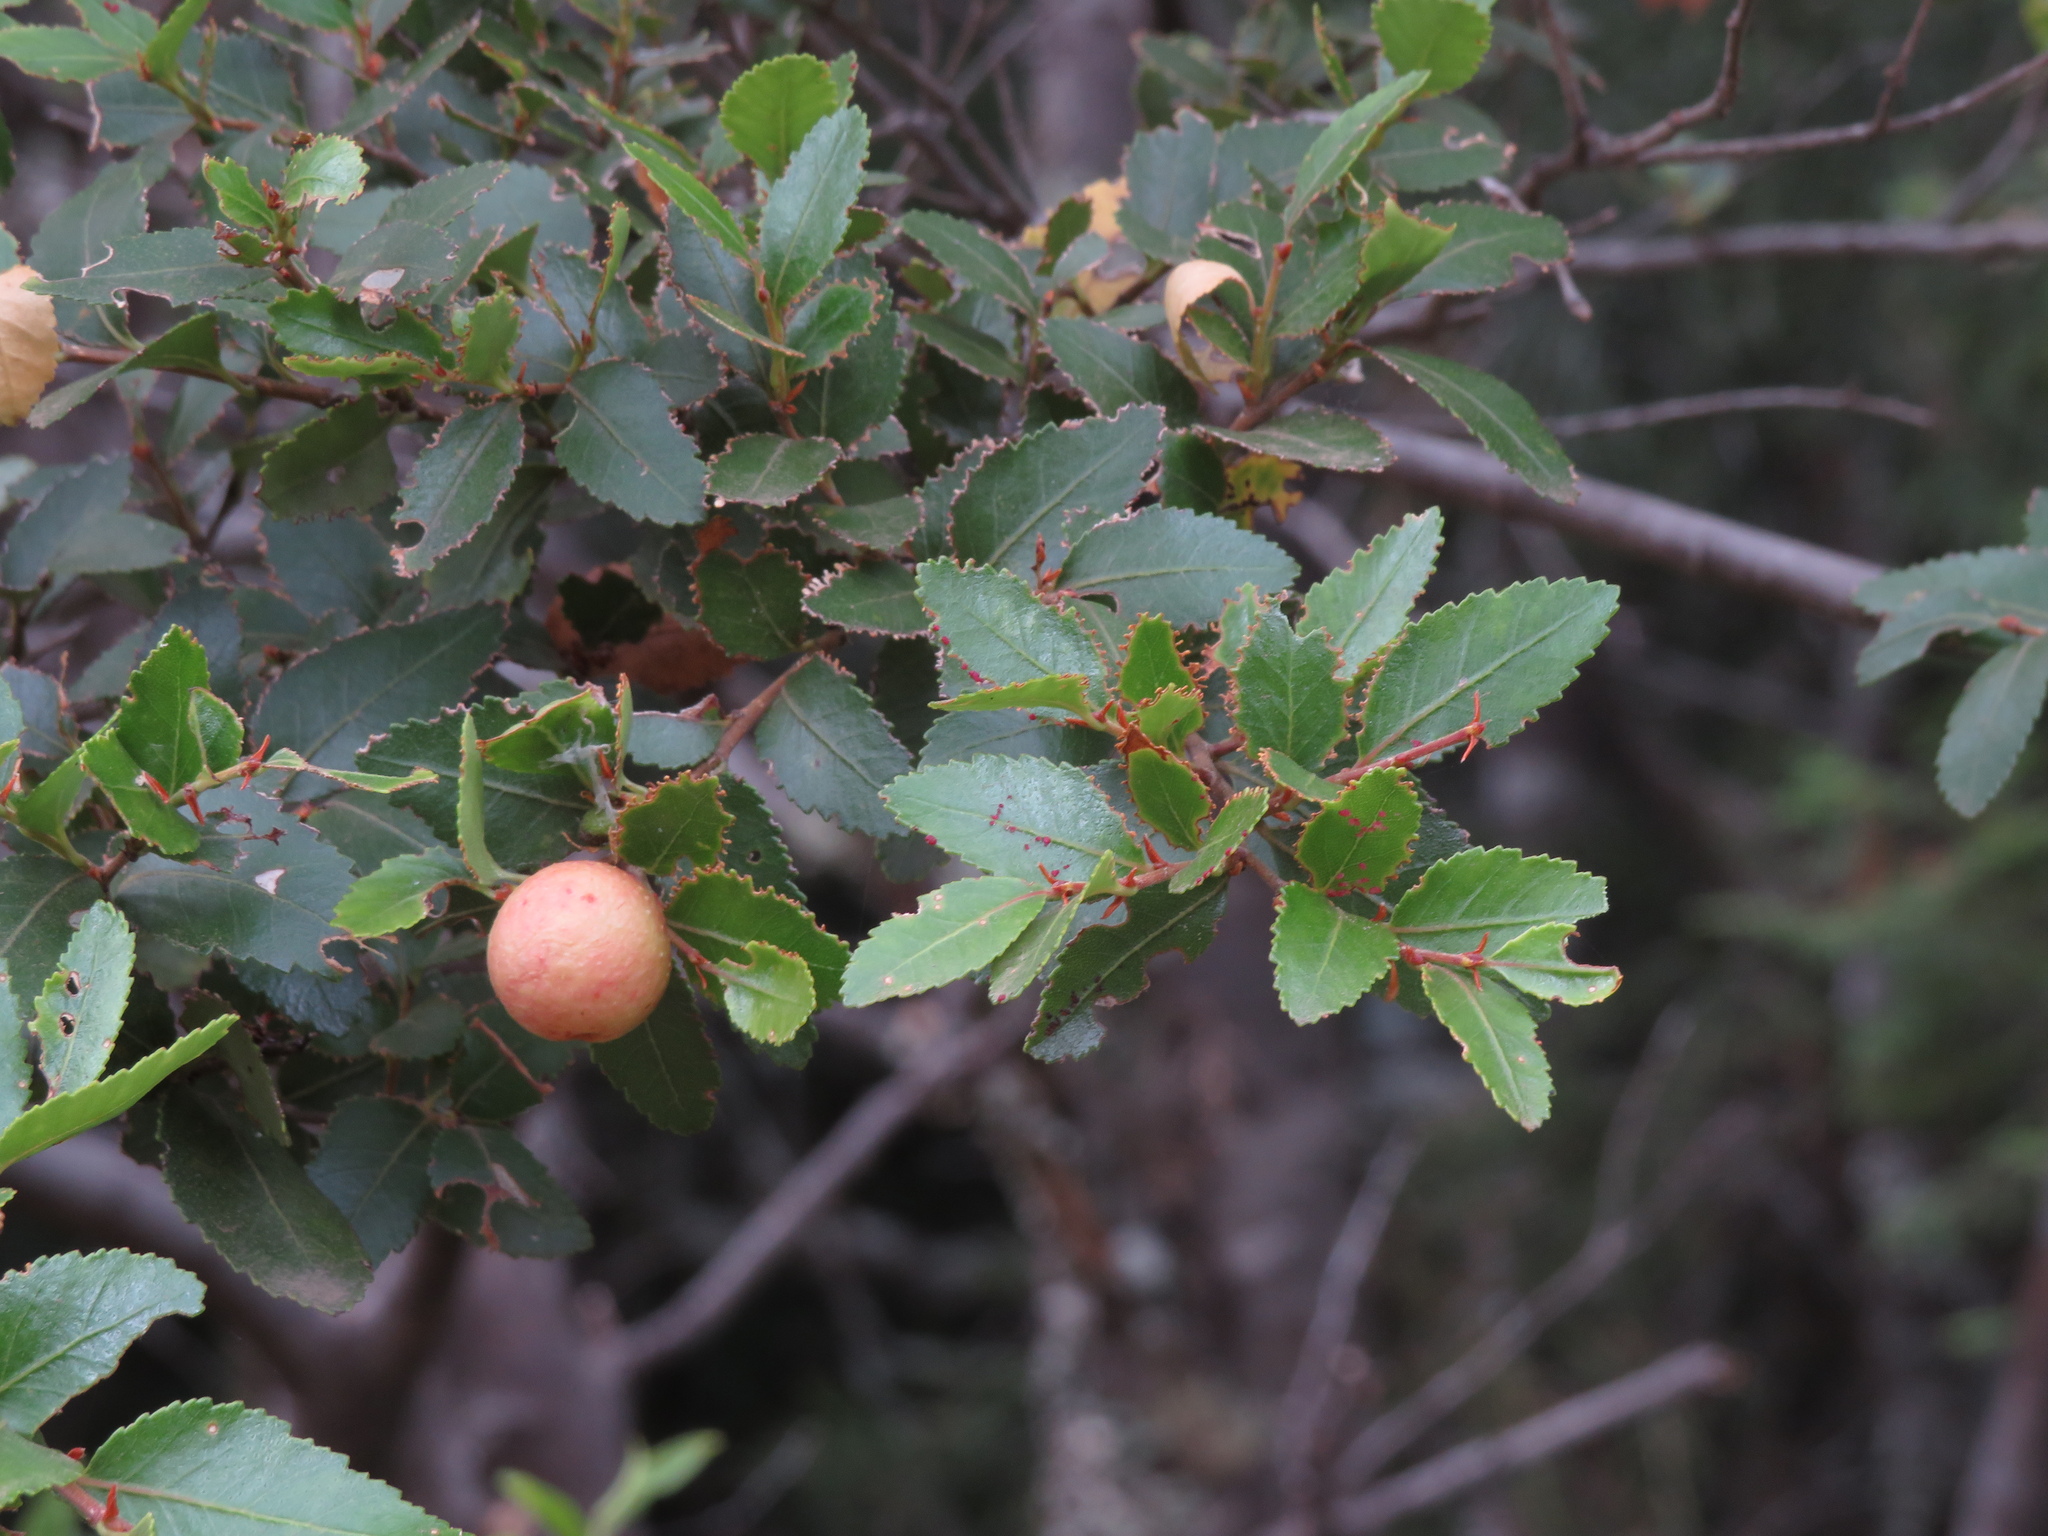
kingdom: Plantae
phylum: Tracheophyta
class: Magnoliopsida
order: Fagales
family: Nothofagaceae
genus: Nothofagus
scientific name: Nothofagus dombeyi
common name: Coigue
